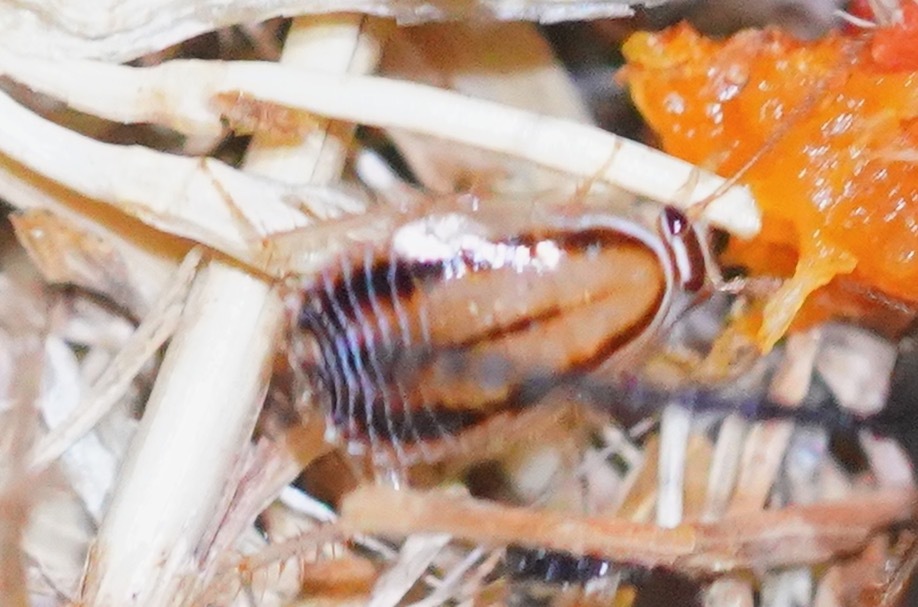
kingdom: Animalia
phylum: Arthropoda
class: Insecta
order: Blattodea
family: Ectobiidae
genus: Luridiblatta
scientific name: Luridiblatta trivittata
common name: Three-lined cockroach
